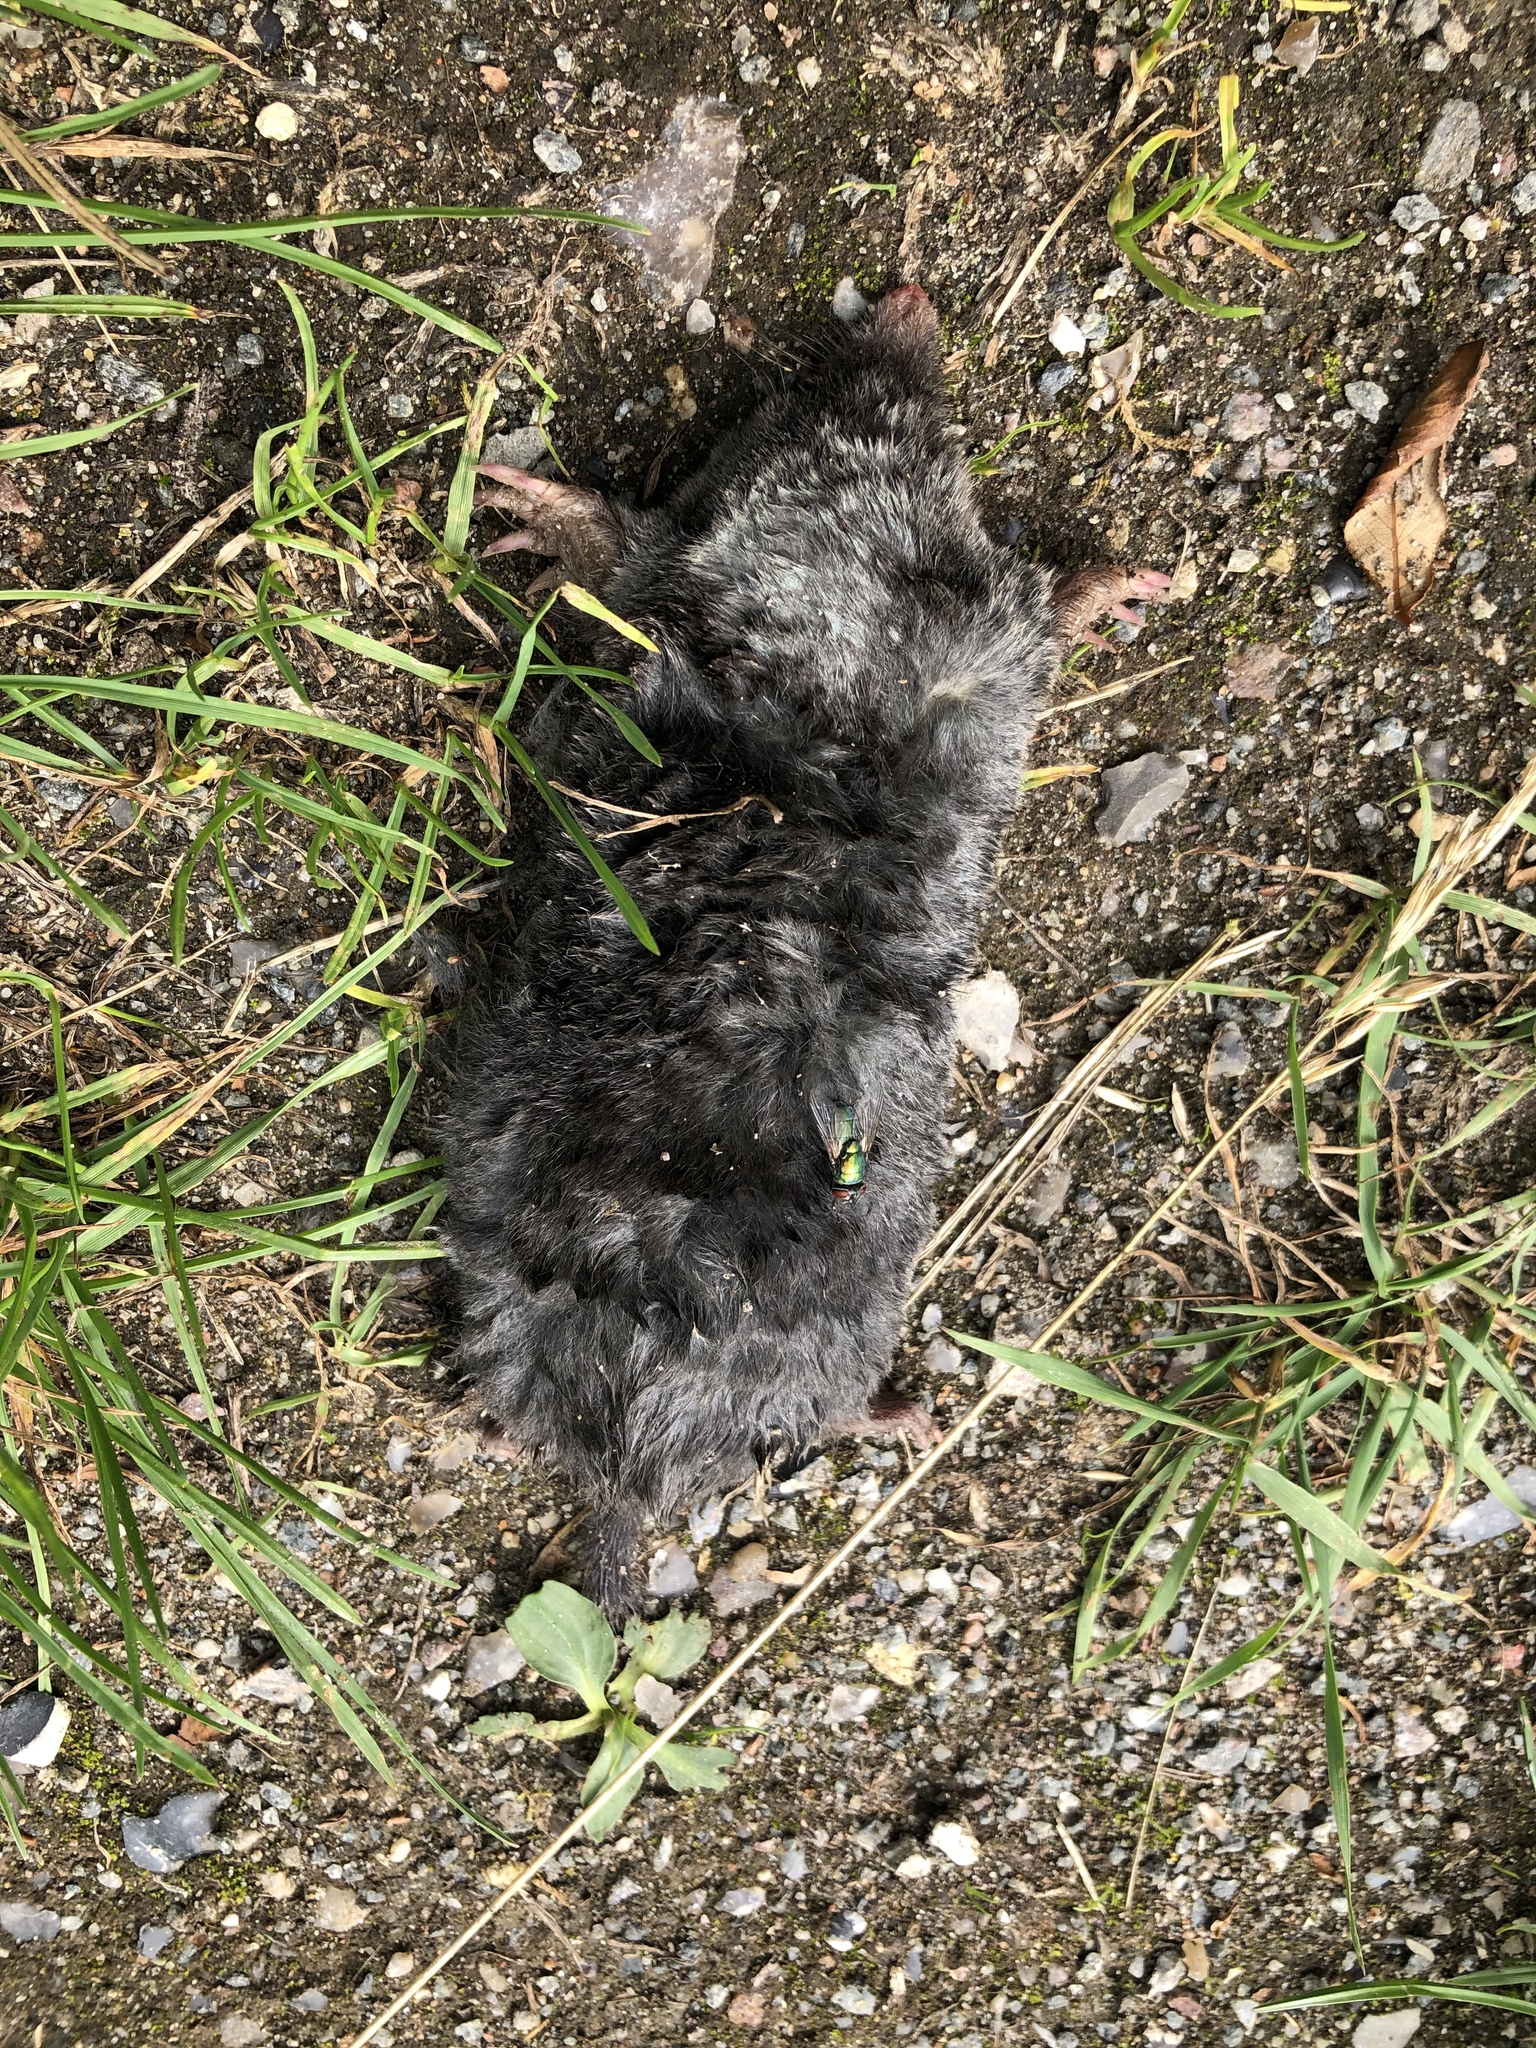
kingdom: Animalia
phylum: Chordata
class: Mammalia
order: Soricomorpha
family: Talpidae
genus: Talpa
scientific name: Talpa europaea
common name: European mole
